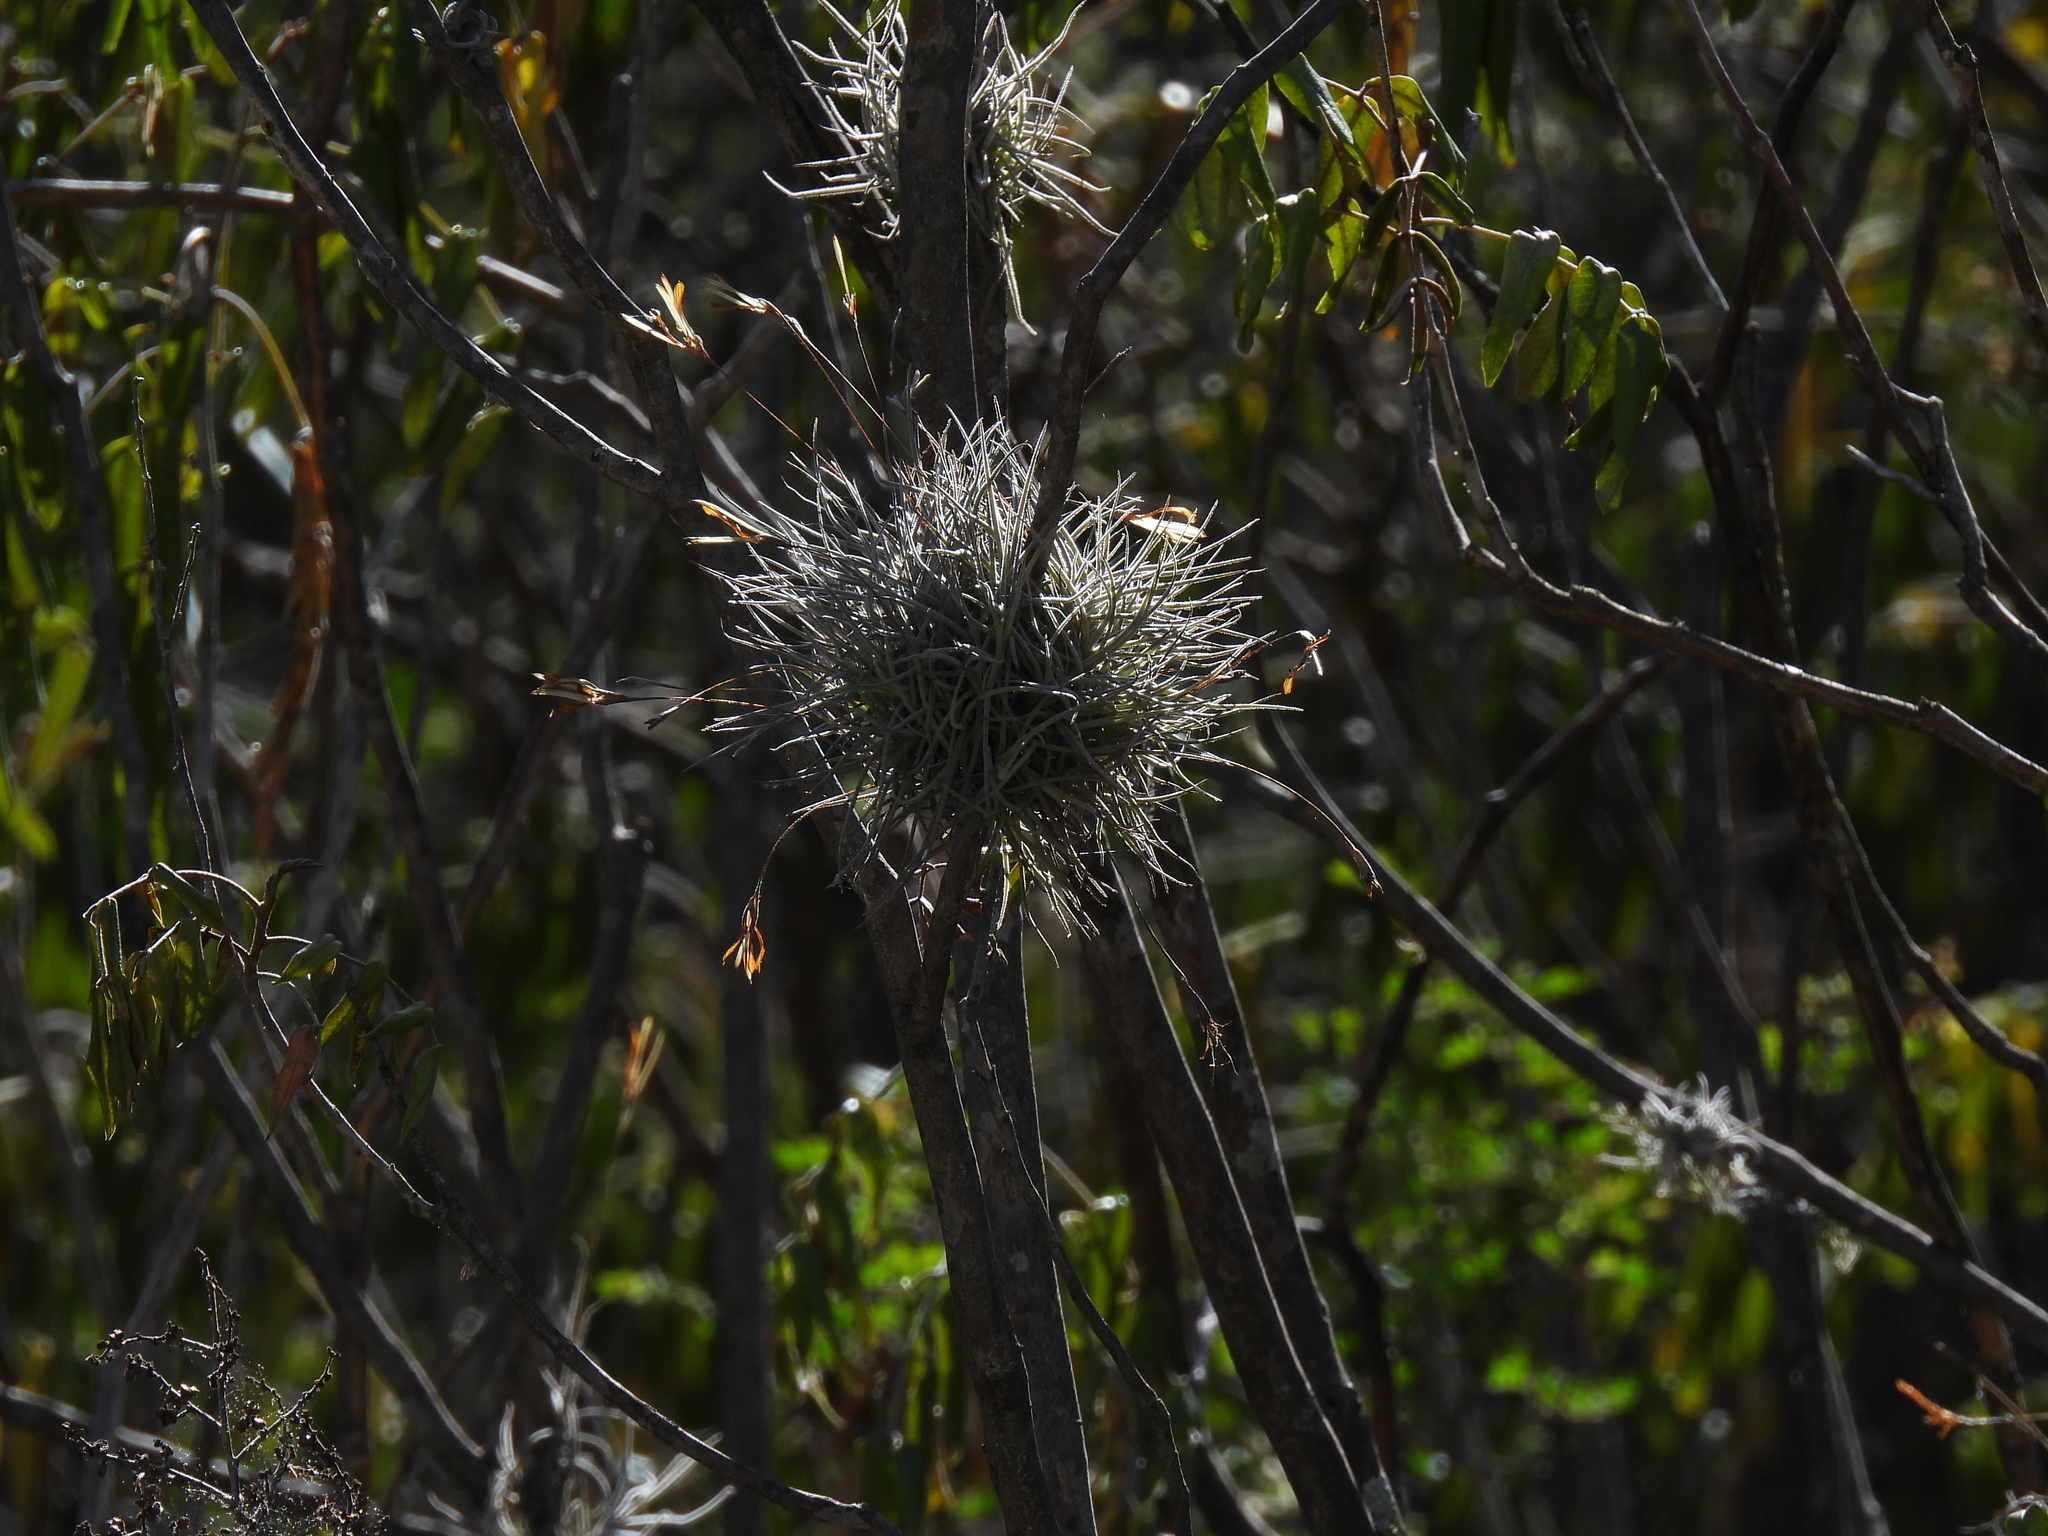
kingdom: Plantae
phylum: Tracheophyta
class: Liliopsida
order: Poales
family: Bromeliaceae
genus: Tillandsia
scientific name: Tillandsia recurvata
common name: Small ballmoss
